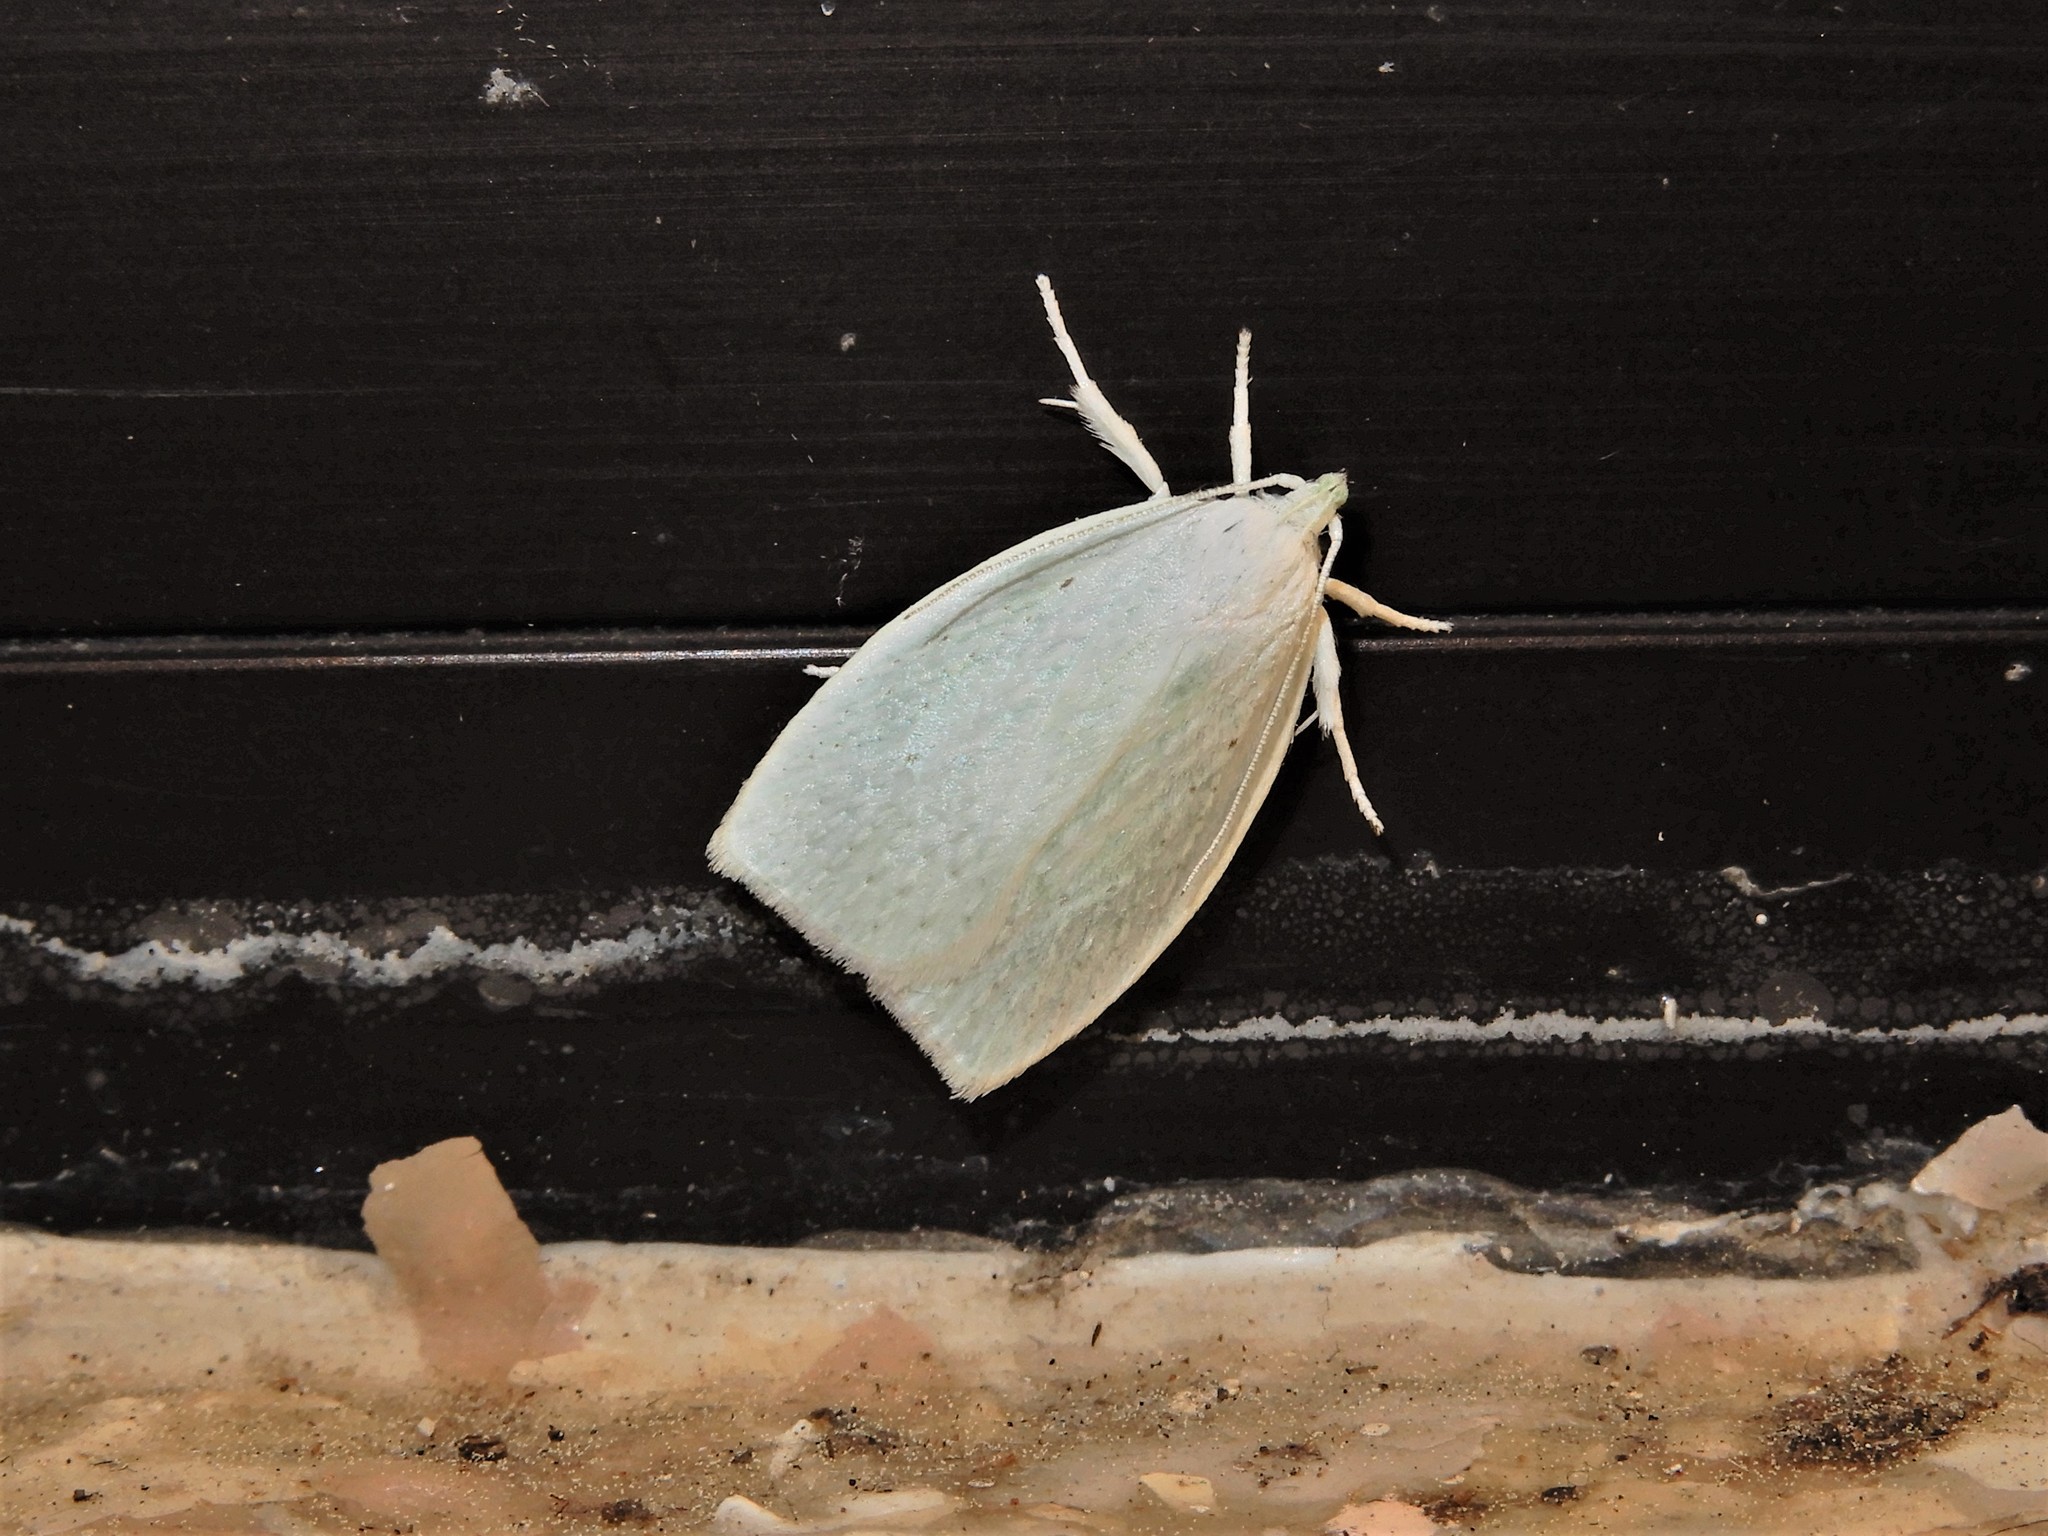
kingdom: Animalia
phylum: Arthropoda
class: Insecta
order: Lepidoptera
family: Oecophoridae
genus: Nymphostola
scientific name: Nymphostola galactina
